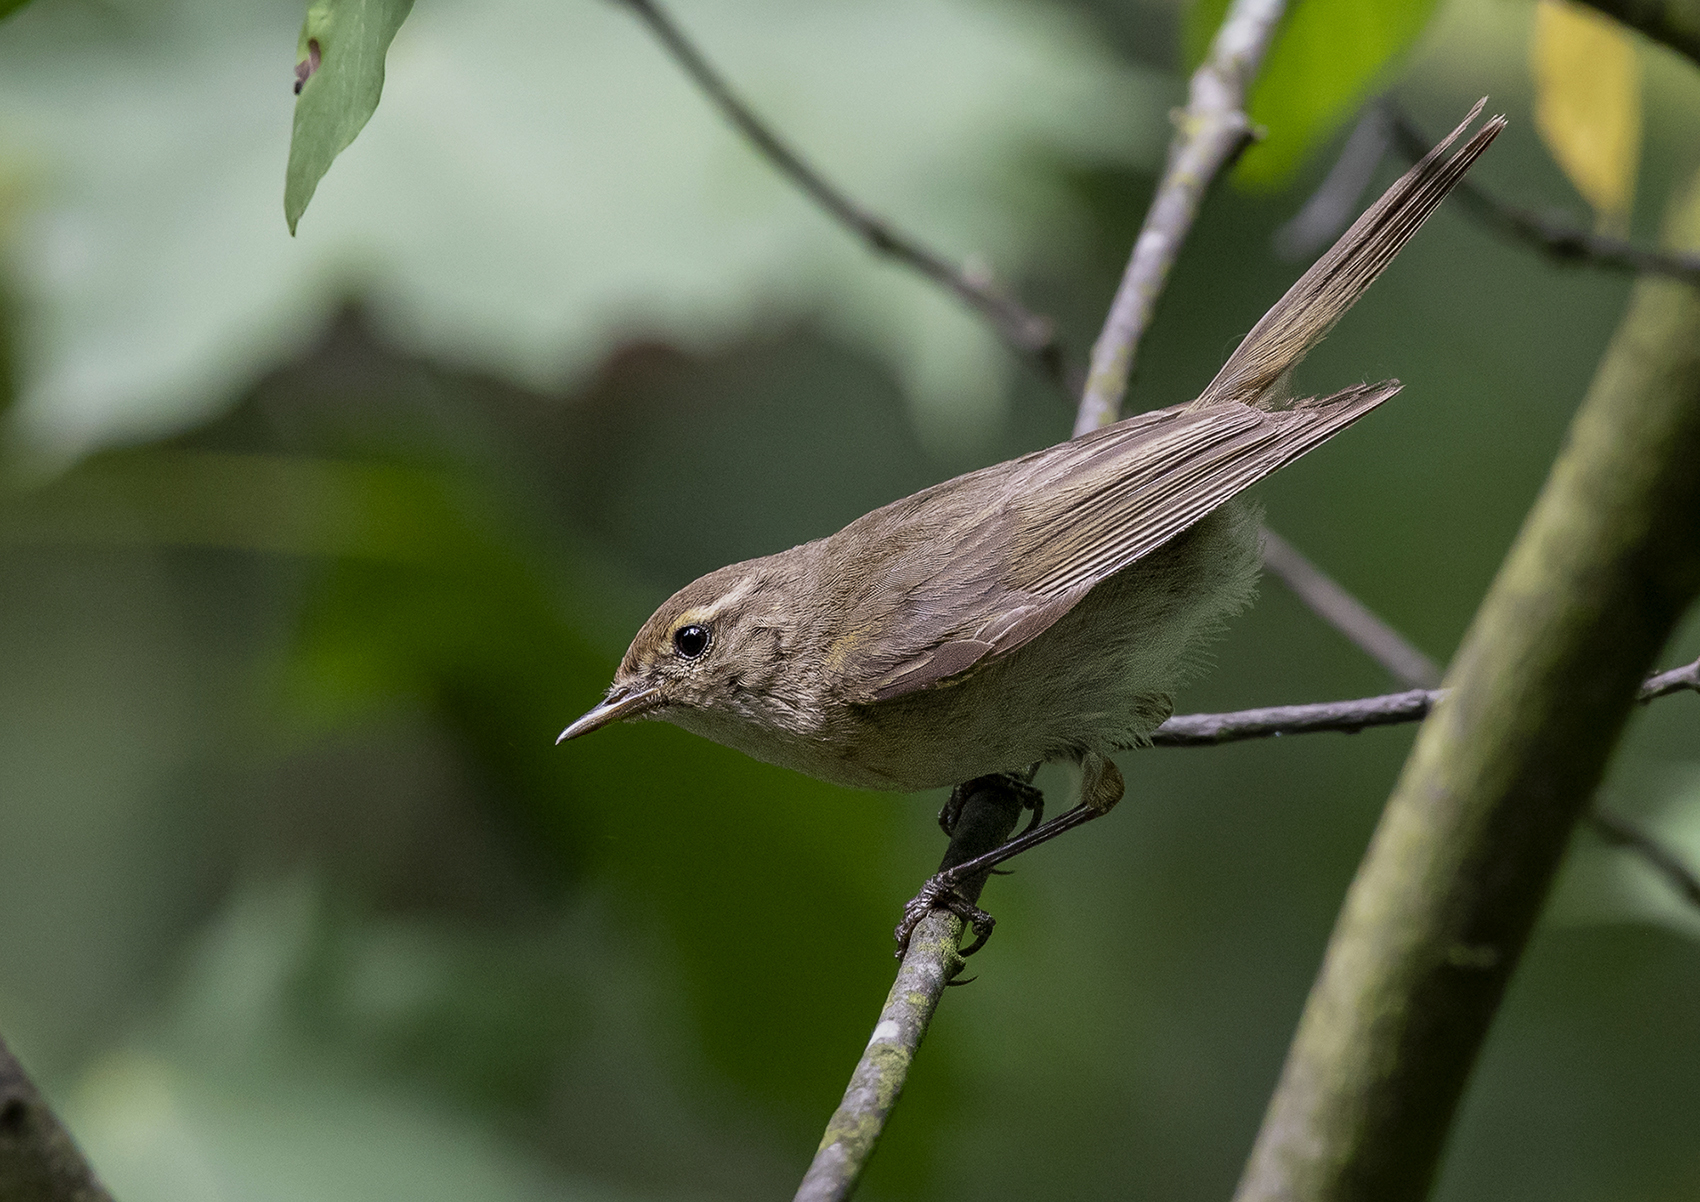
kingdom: Animalia
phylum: Chordata
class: Aves
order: Passeriformes
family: Phylloscopidae
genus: Phylloscopus
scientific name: Phylloscopus collybita
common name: Common chiffchaff
